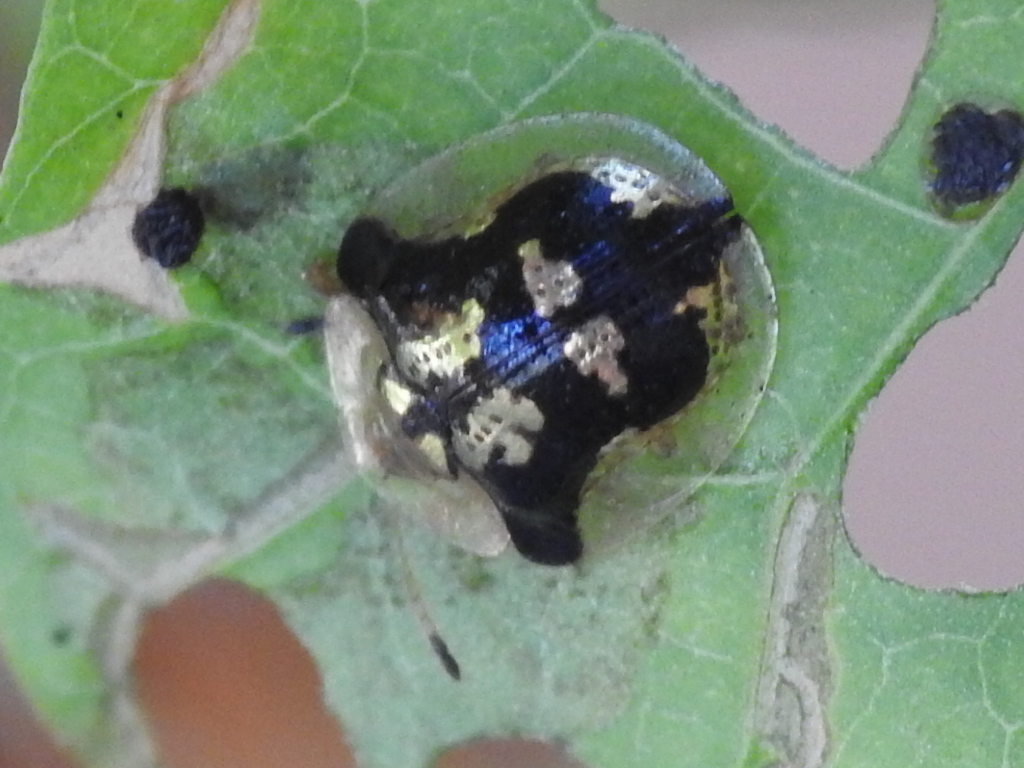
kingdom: Animalia
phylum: Arthropoda
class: Insecta
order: Coleoptera
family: Chrysomelidae
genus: Deloyala
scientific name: Deloyala guttata
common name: Mottled tortoise beetle
